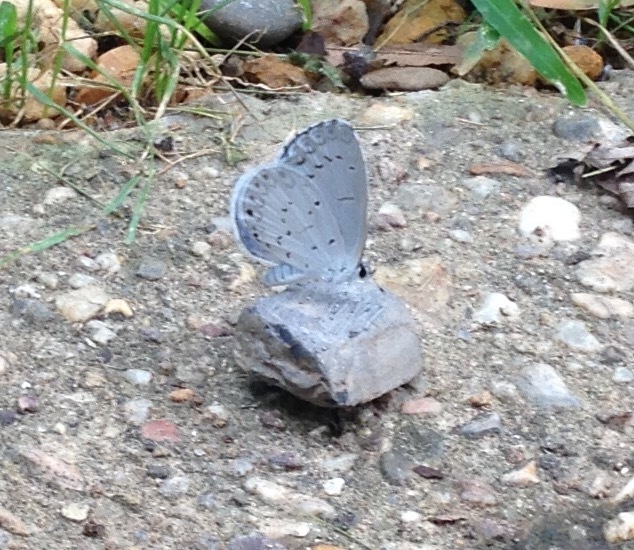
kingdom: Animalia
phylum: Arthropoda
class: Insecta
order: Lepidoptera
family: Lycaenidae
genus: Cyaniris
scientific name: Cyaniris neglecta
